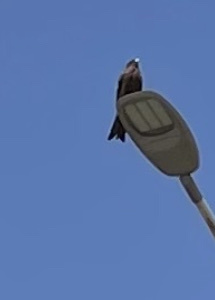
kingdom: Animalia
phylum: Chordata
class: Aves
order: Accipitriformes
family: Accipitridae
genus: Milvus
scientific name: Milvus migrans
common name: Black kite
